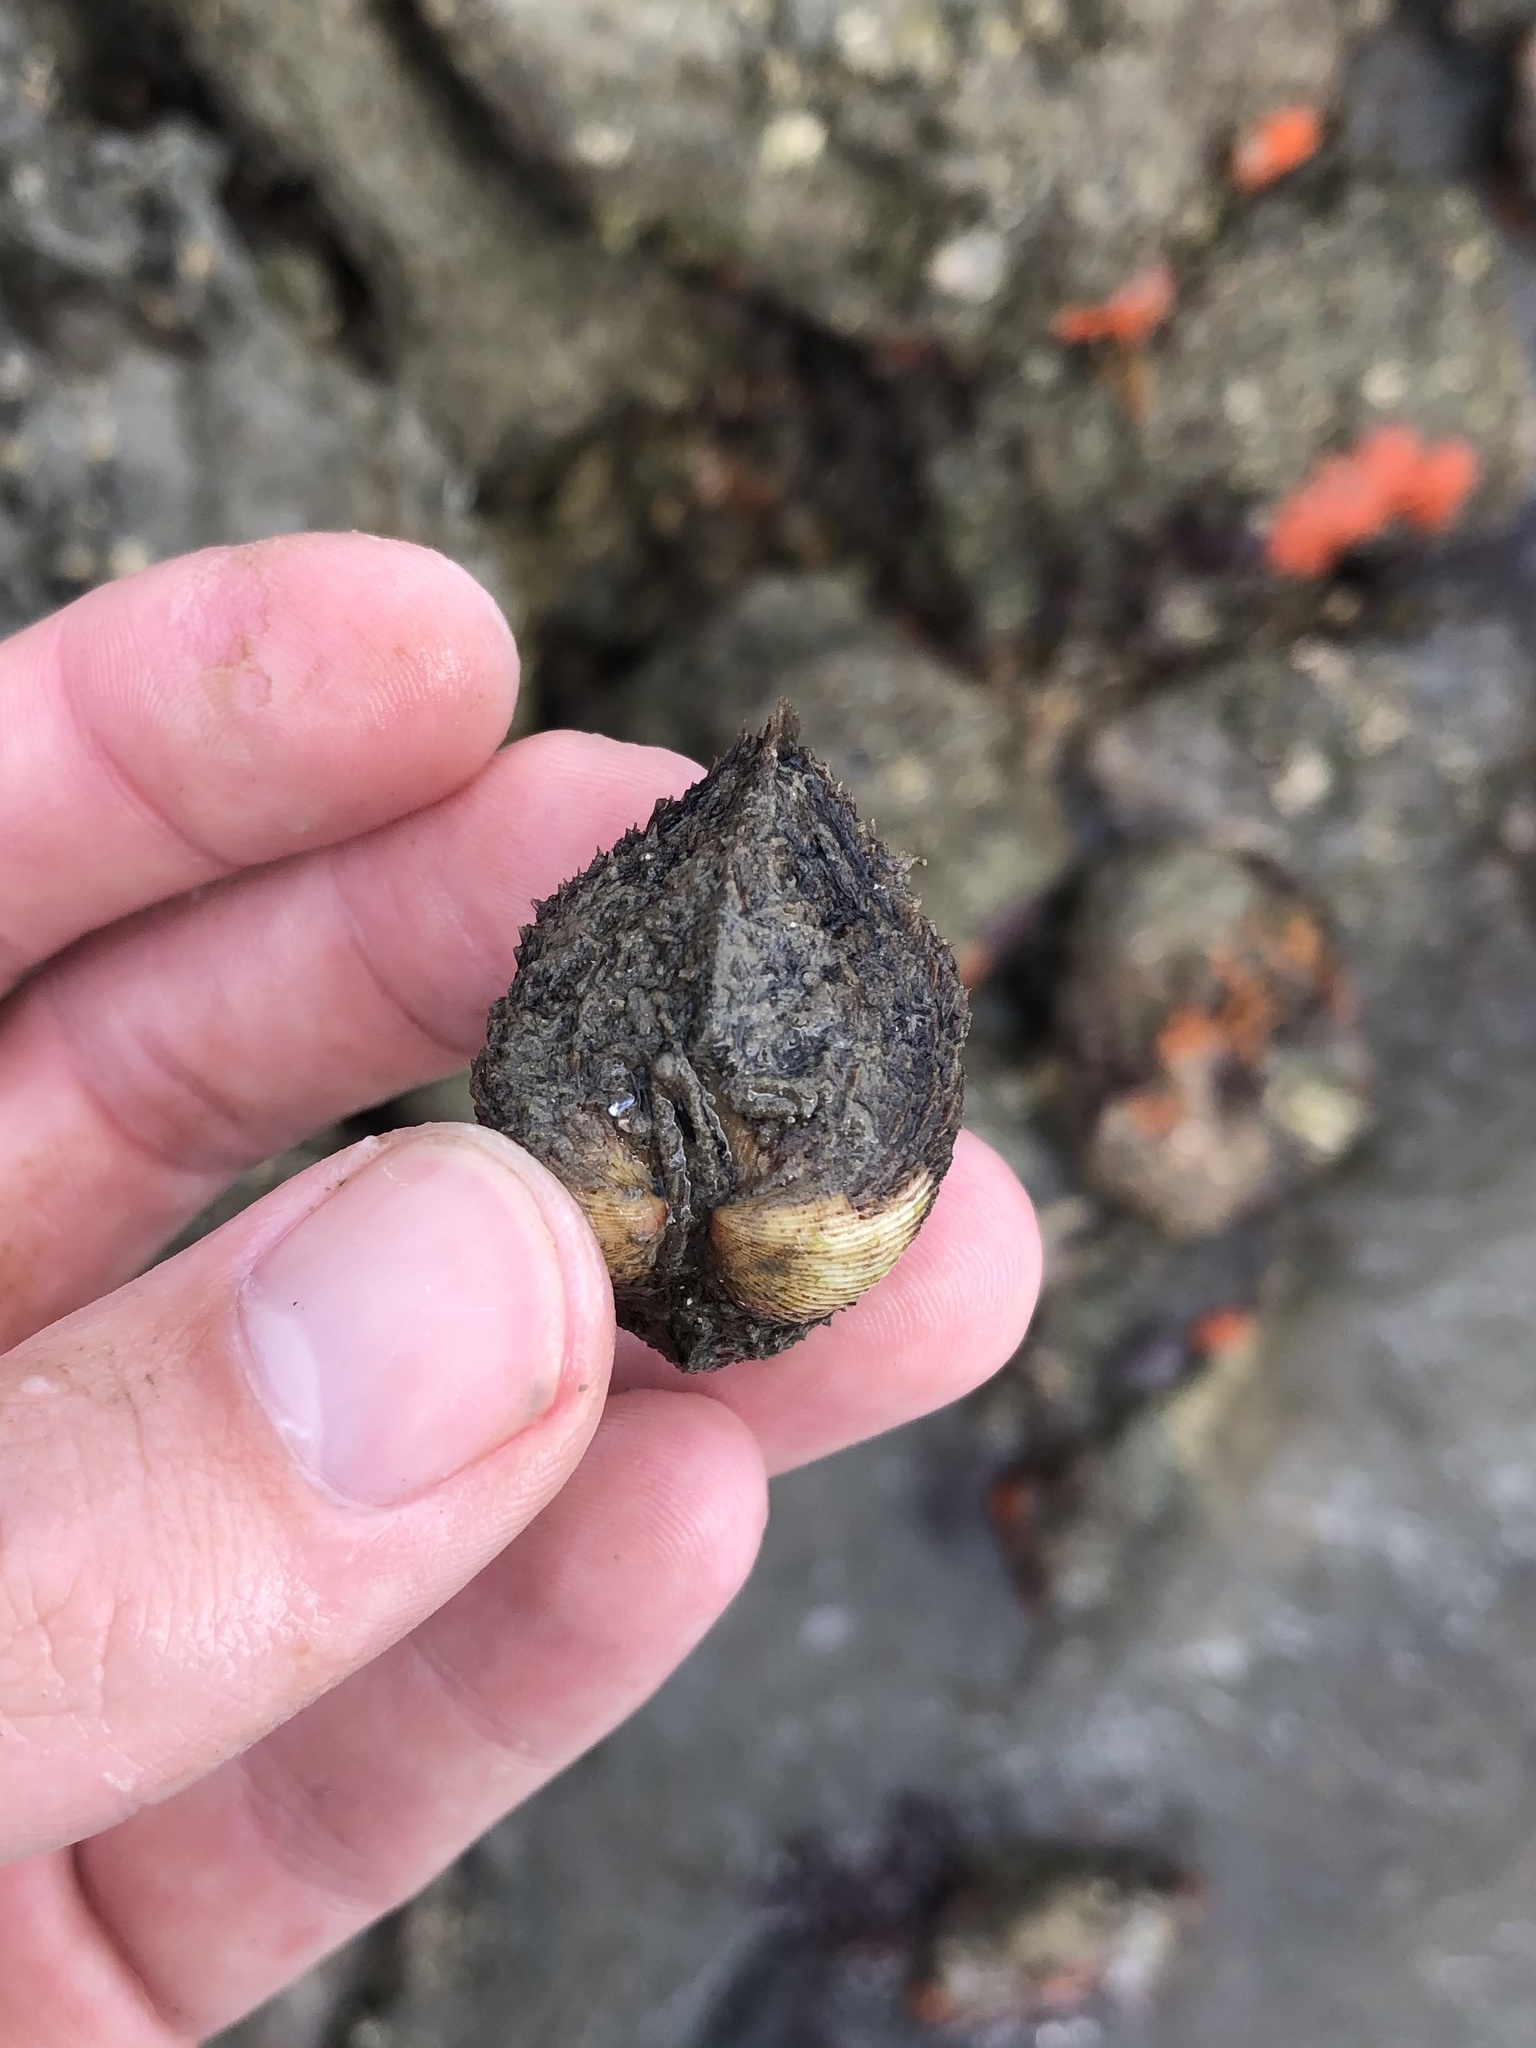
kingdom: Animalia
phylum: Mollusca
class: Bivalvia
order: Arcida
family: Noetiidae
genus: Noetia
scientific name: Noetia ponderosa
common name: Ponderous ark
